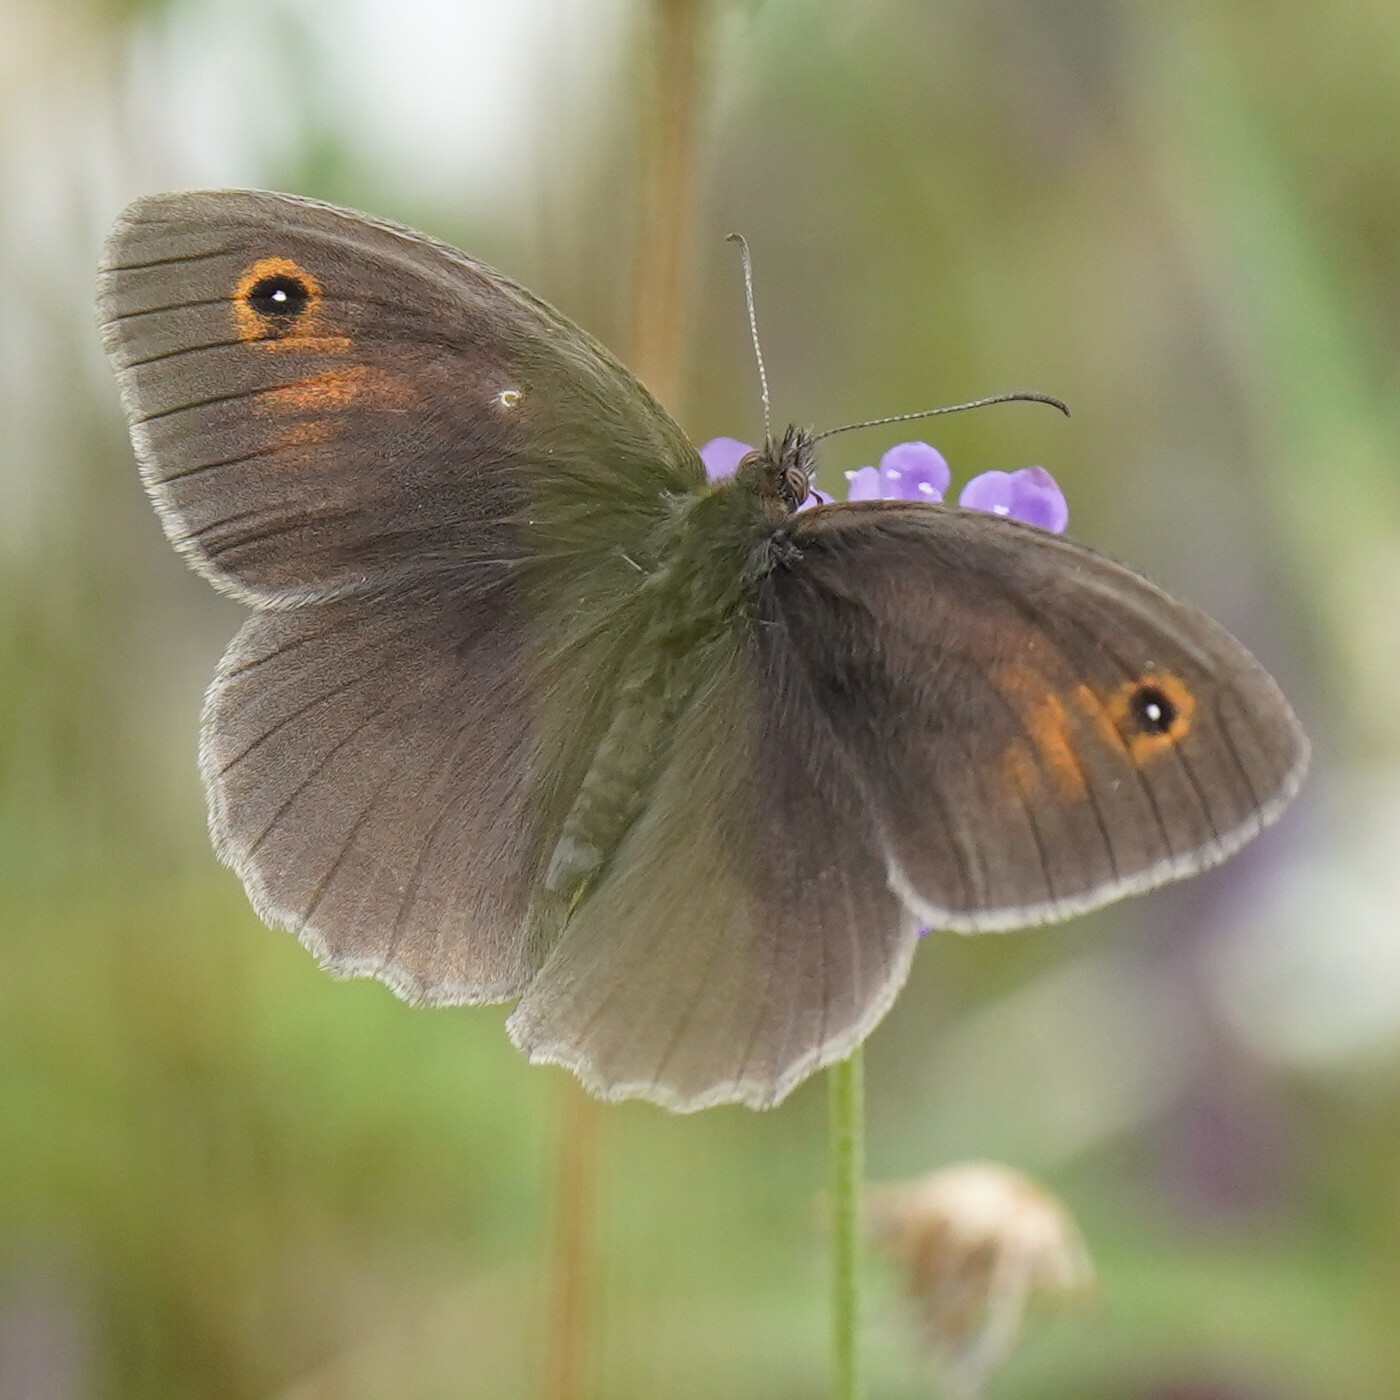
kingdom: Animalia
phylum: Arthropoda
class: Insecta
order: Lepidoptera
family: Nymphalidae
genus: Maniola
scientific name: Maniola jurtina
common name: Meadow brown
